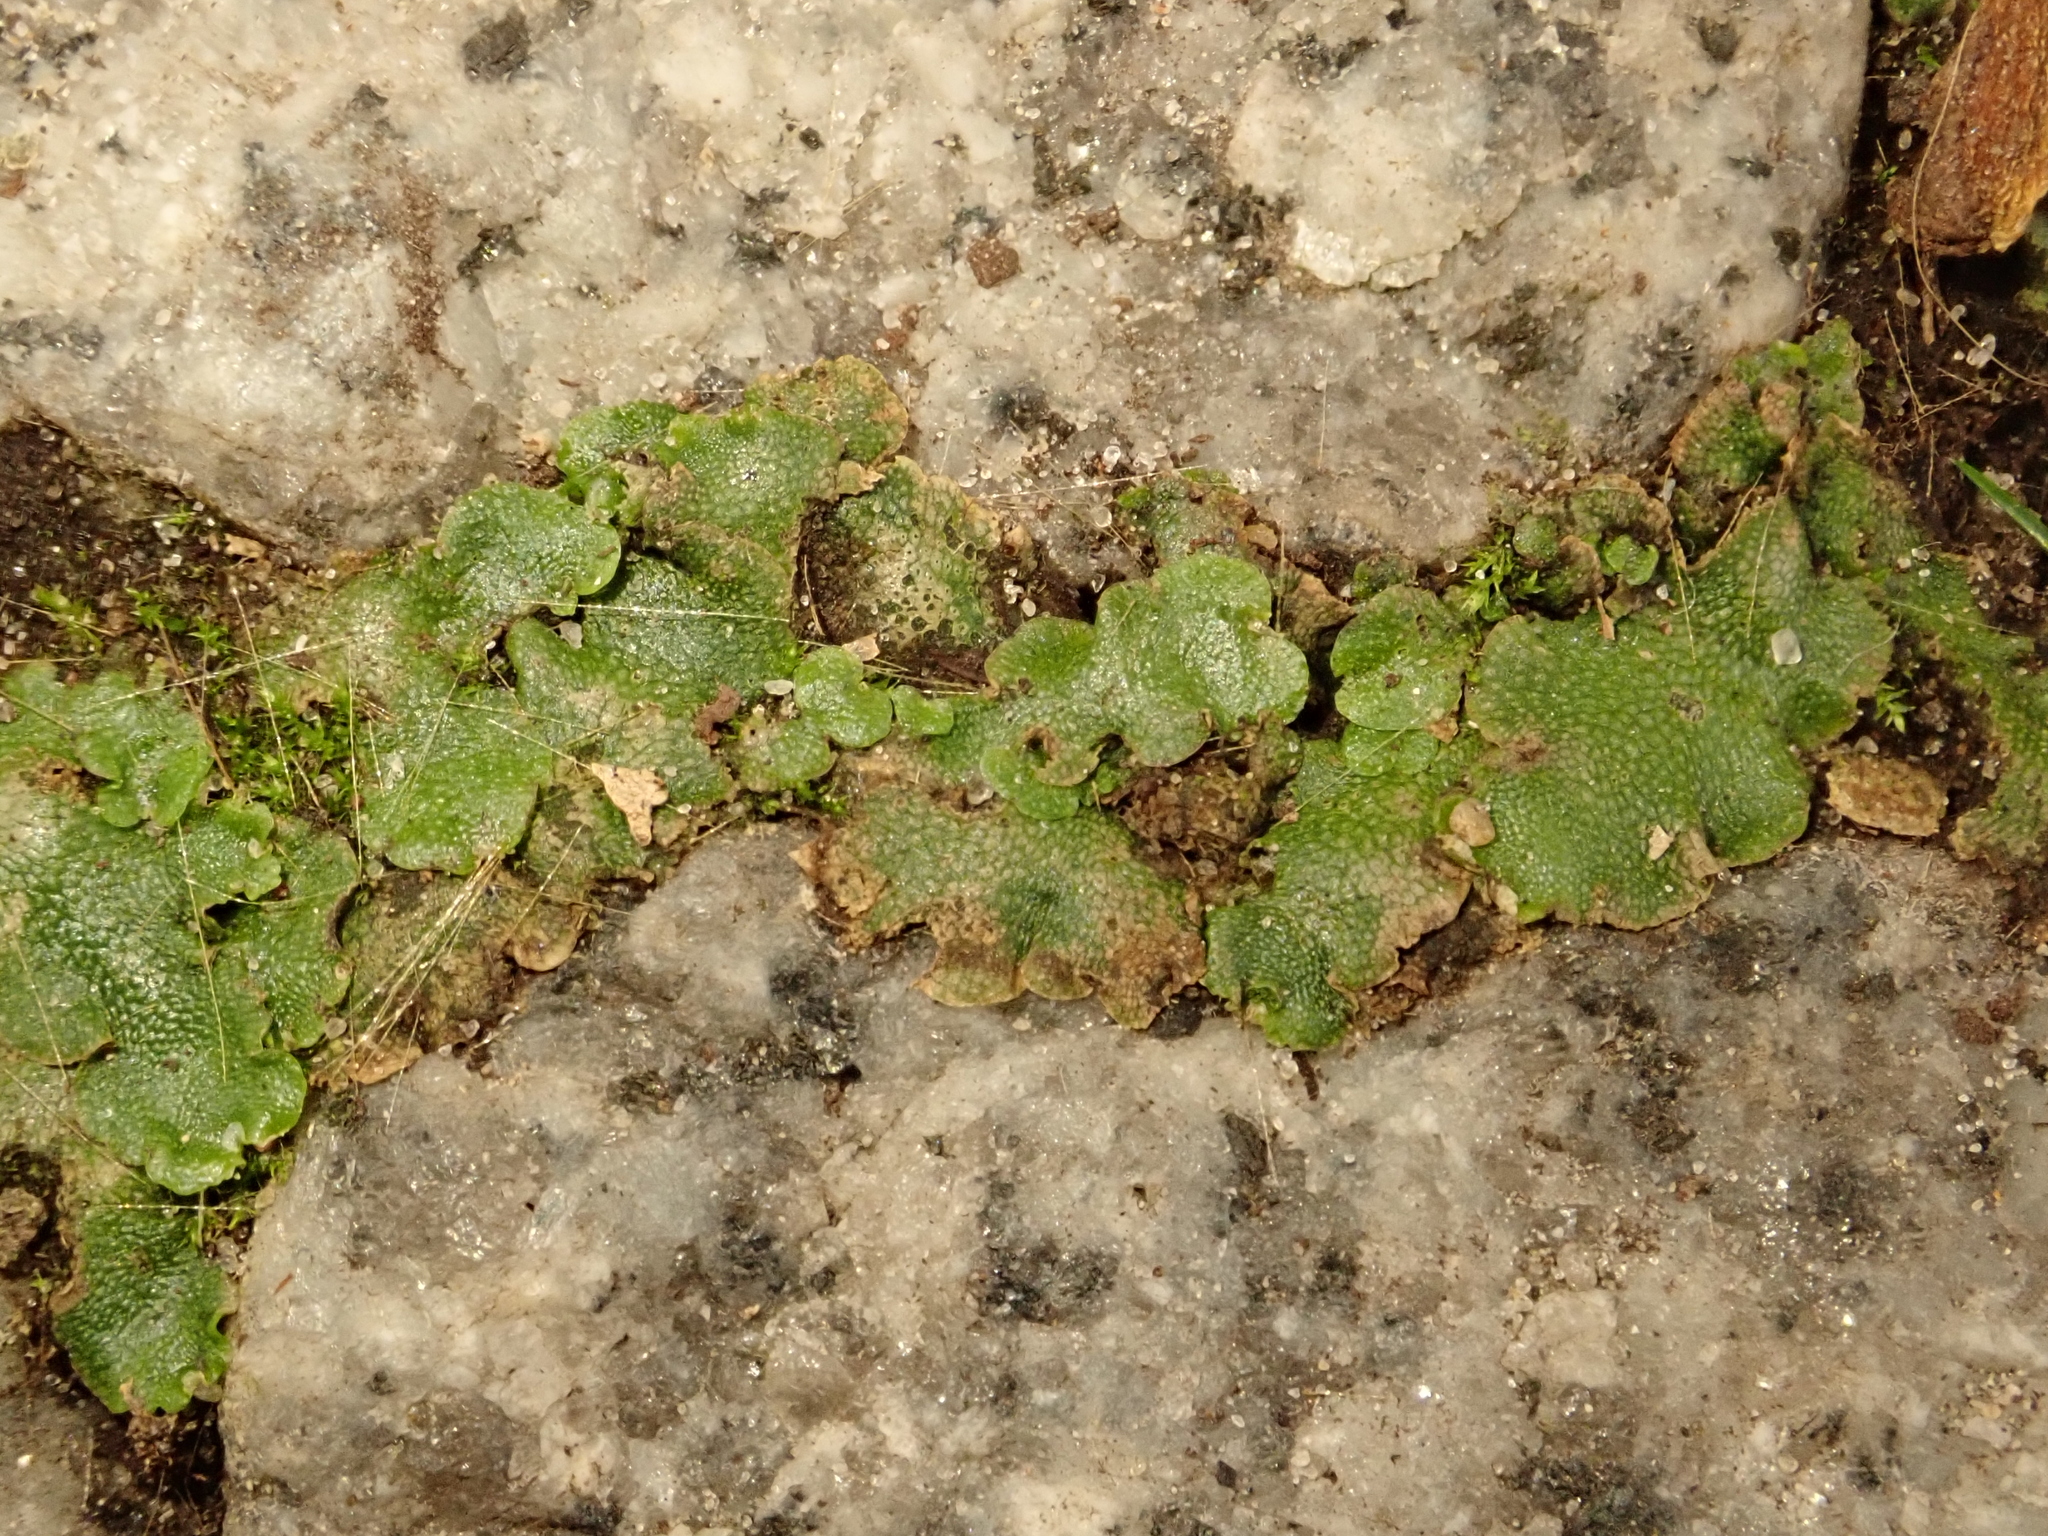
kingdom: Plantae
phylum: Marchantiophyta
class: Marchantiopsida
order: Lunulariales
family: Lunulariaceae
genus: Lunularia
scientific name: Lunularia cruciata
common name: Crescent-cup liverwort
